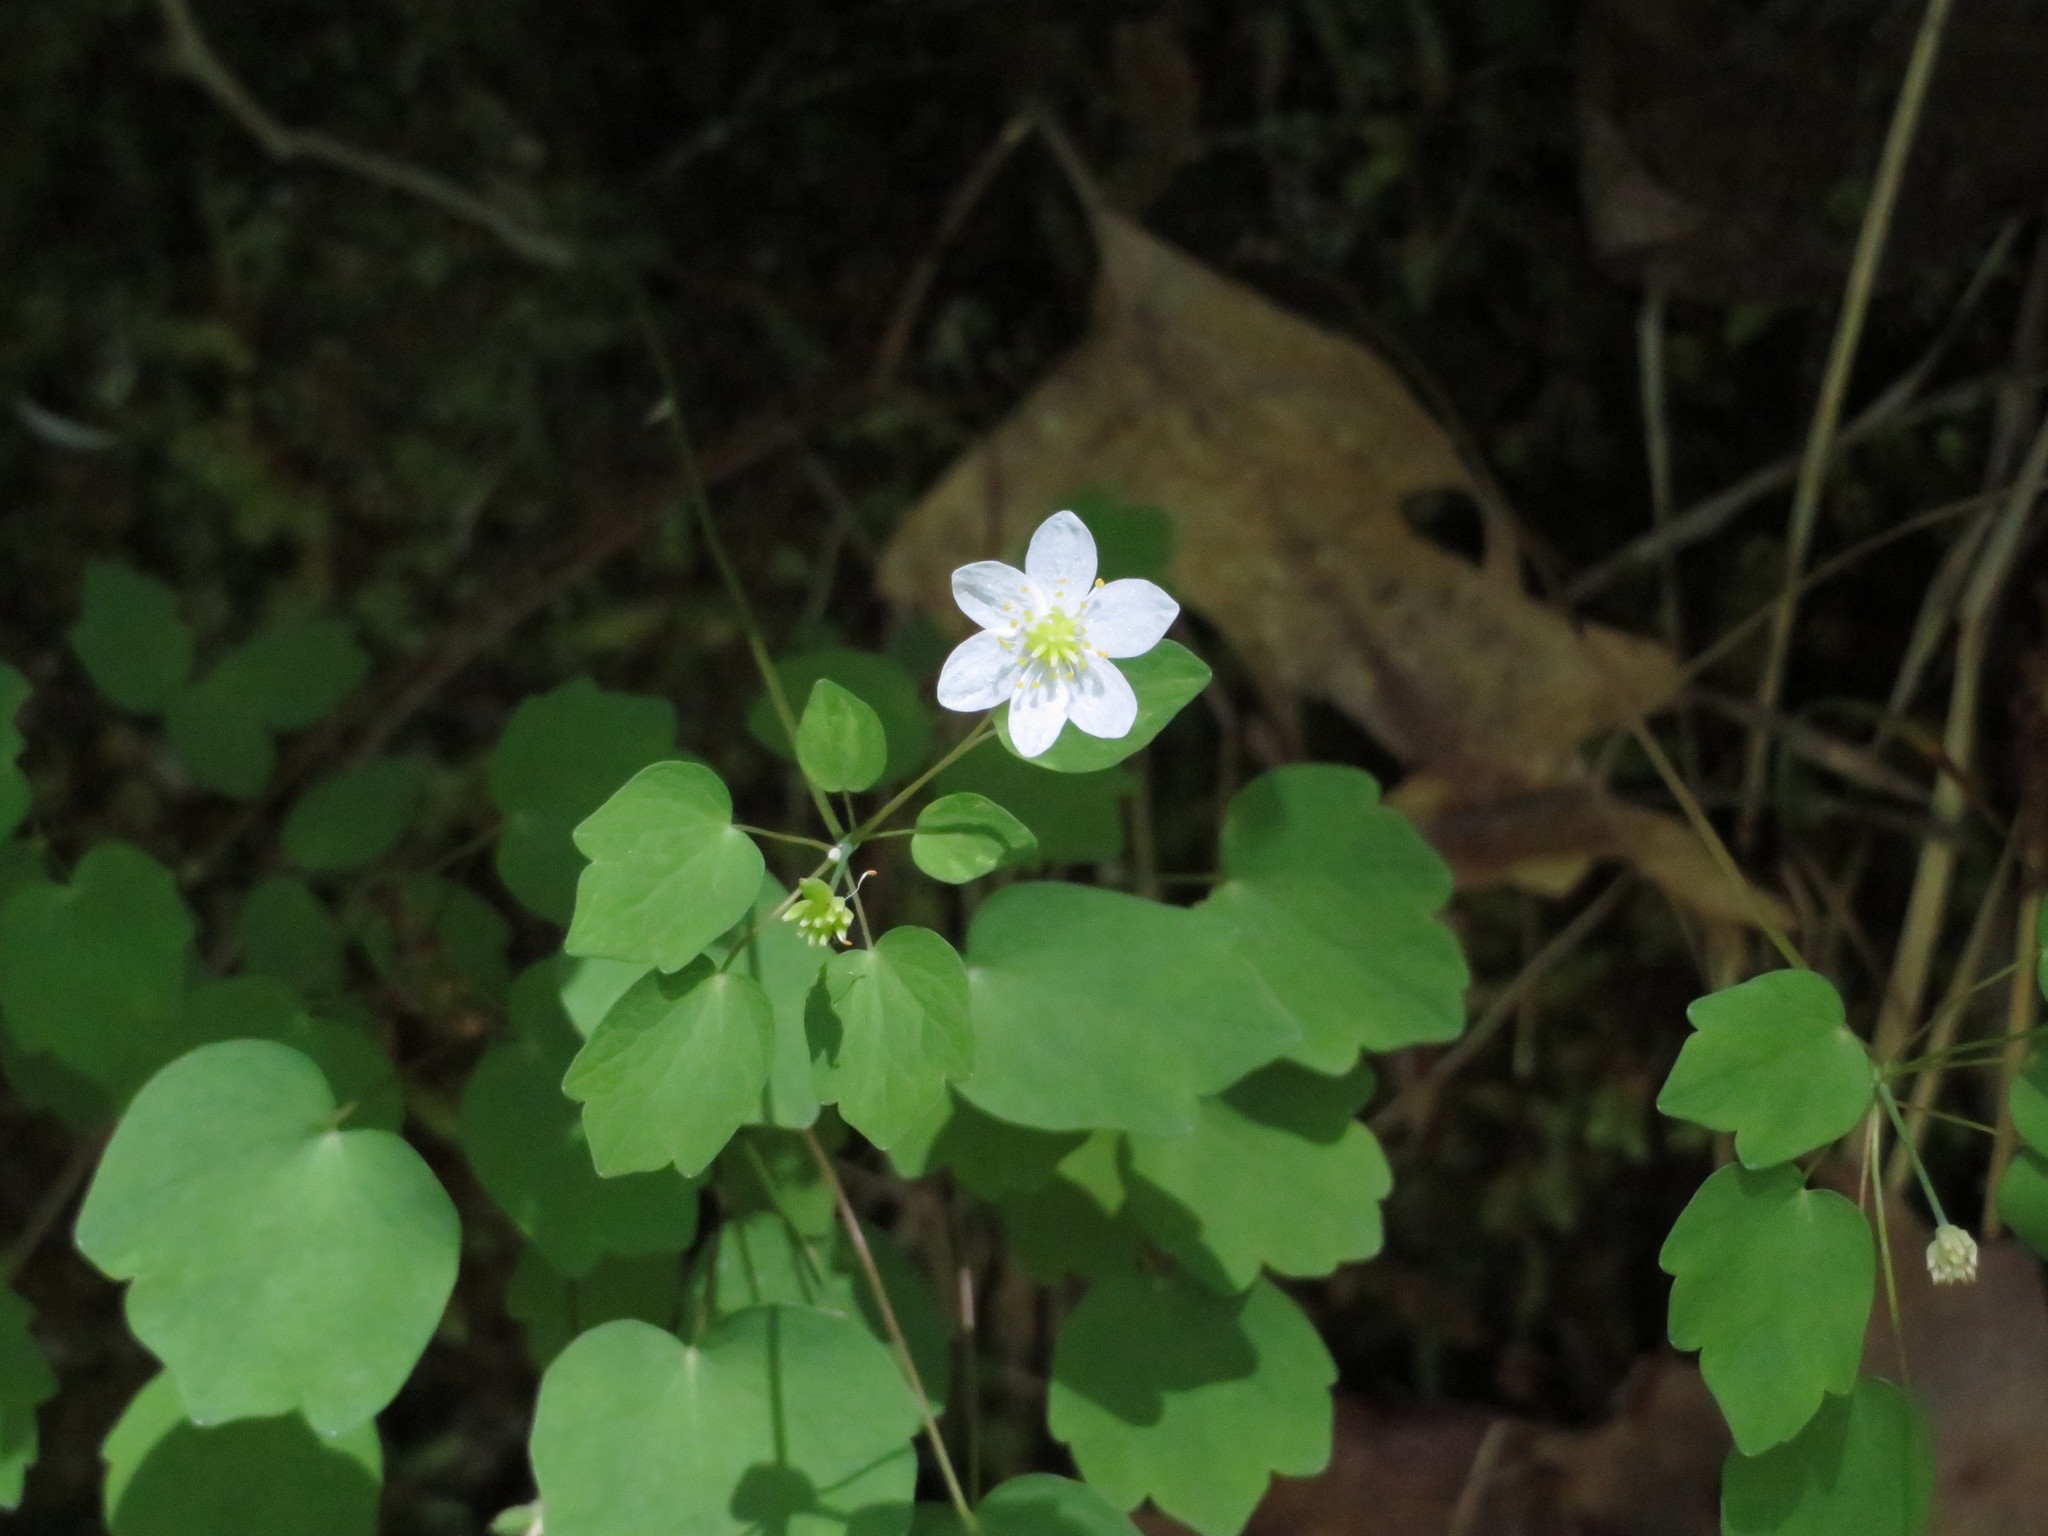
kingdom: Plantae
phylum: Tracheophyta
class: Magnoliopsida
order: Ranunculales
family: Ranunculaceae
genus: Thalictrum
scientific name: Thalictrum thalictroides
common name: Rue-anemone
